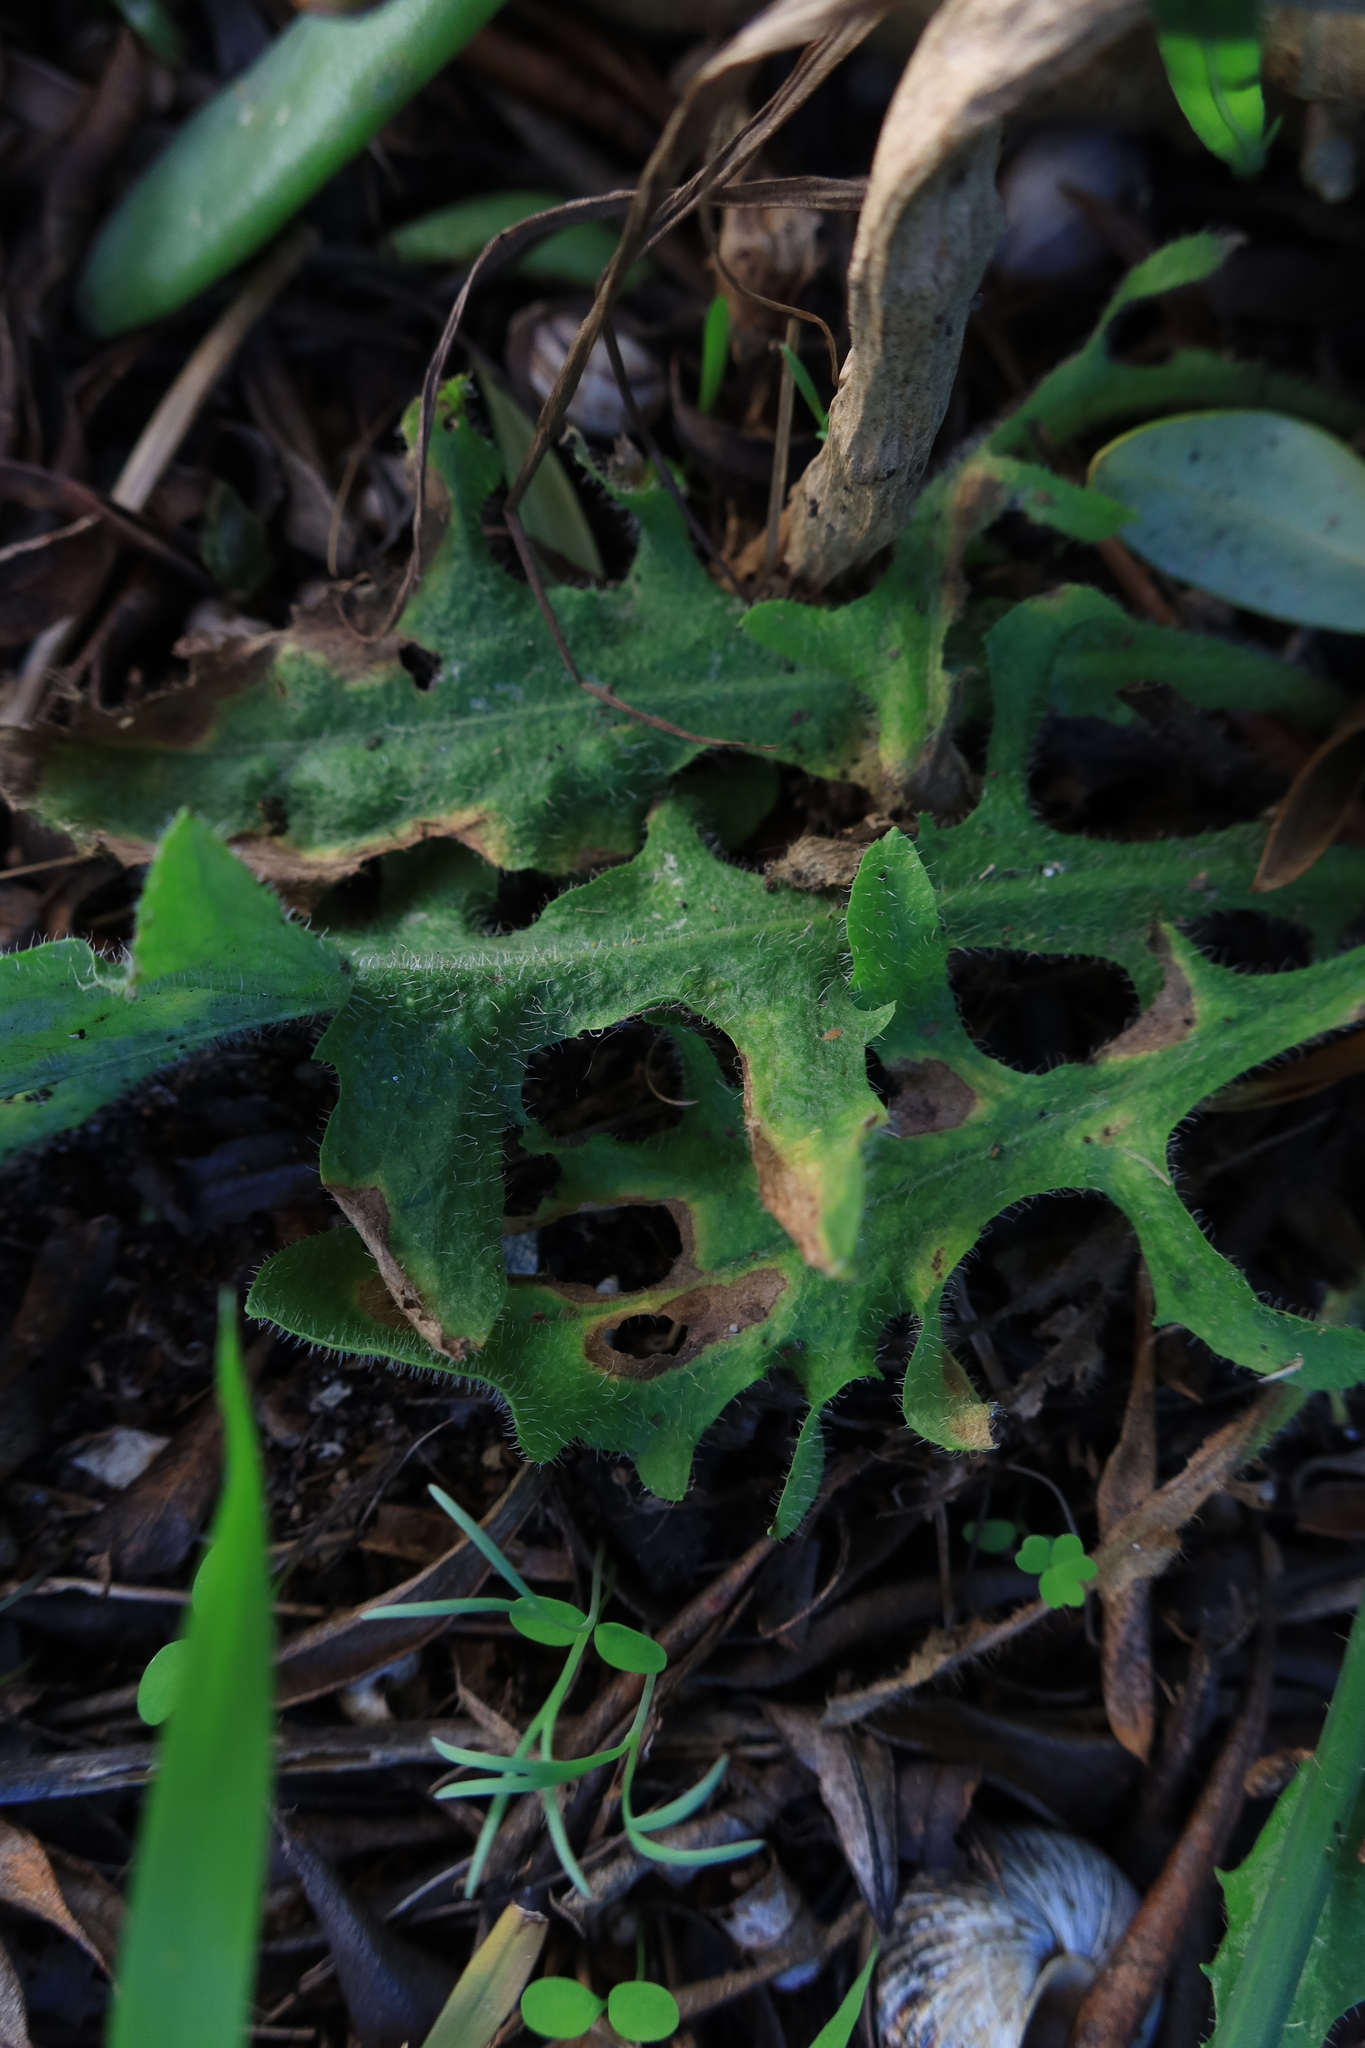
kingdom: Plantae
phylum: Tracheophyta
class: Magnoliopsida
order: Asterales
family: Asteraceae
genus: Hypochaeris
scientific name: Hypochaeris radicata
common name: Flatweed
